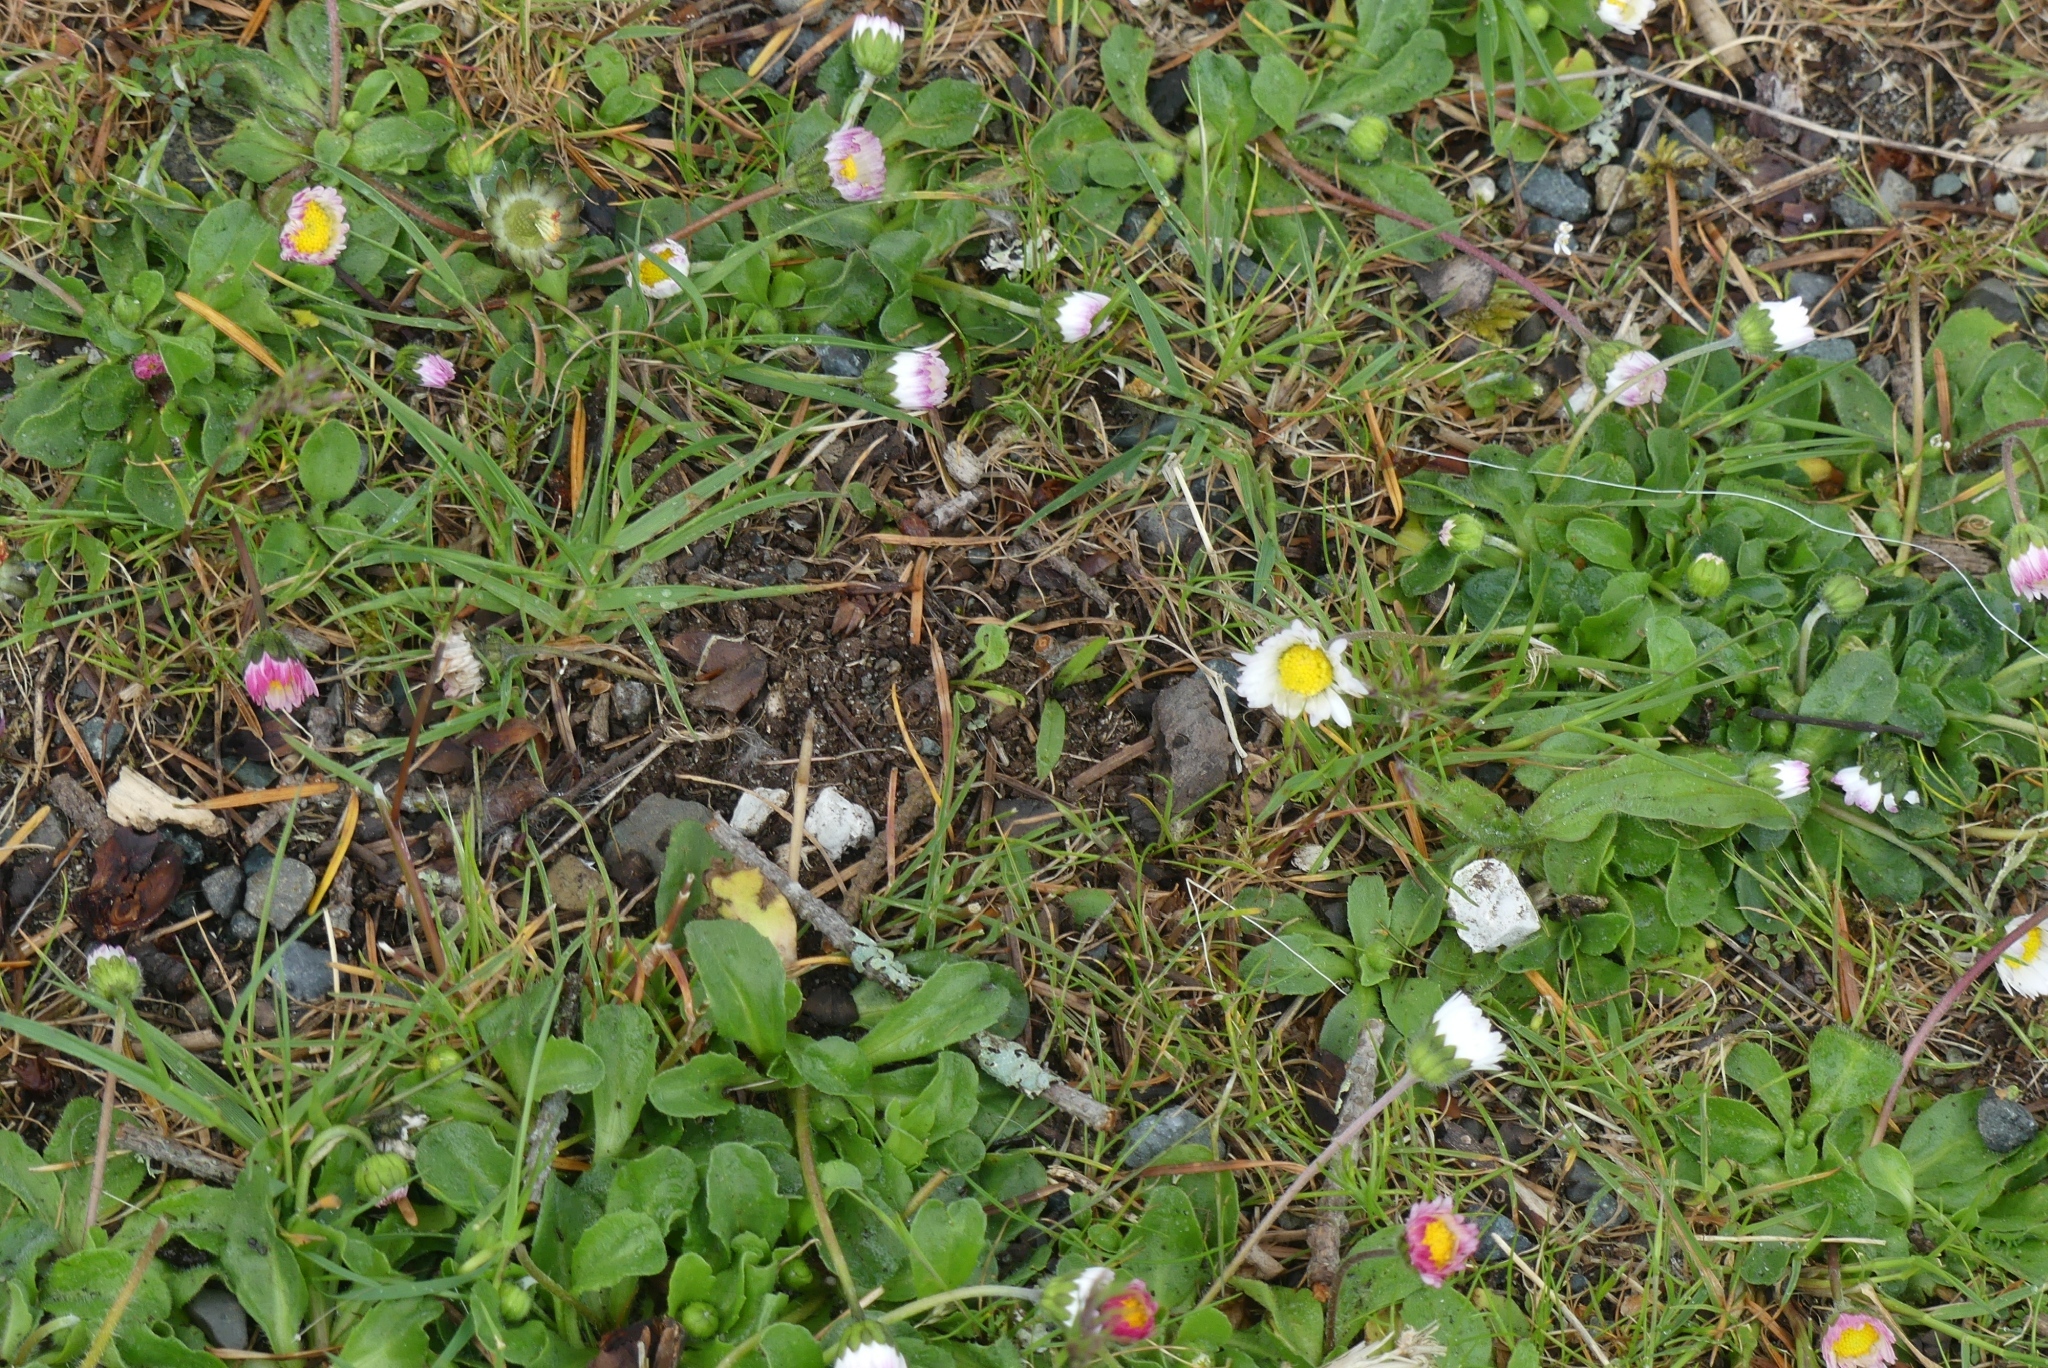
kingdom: Plantae
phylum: Tracheophyta
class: Magnoliopsida
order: Asterales
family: Asteraceae
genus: Bellis
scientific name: Bellis perennis
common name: Lawndaisy
